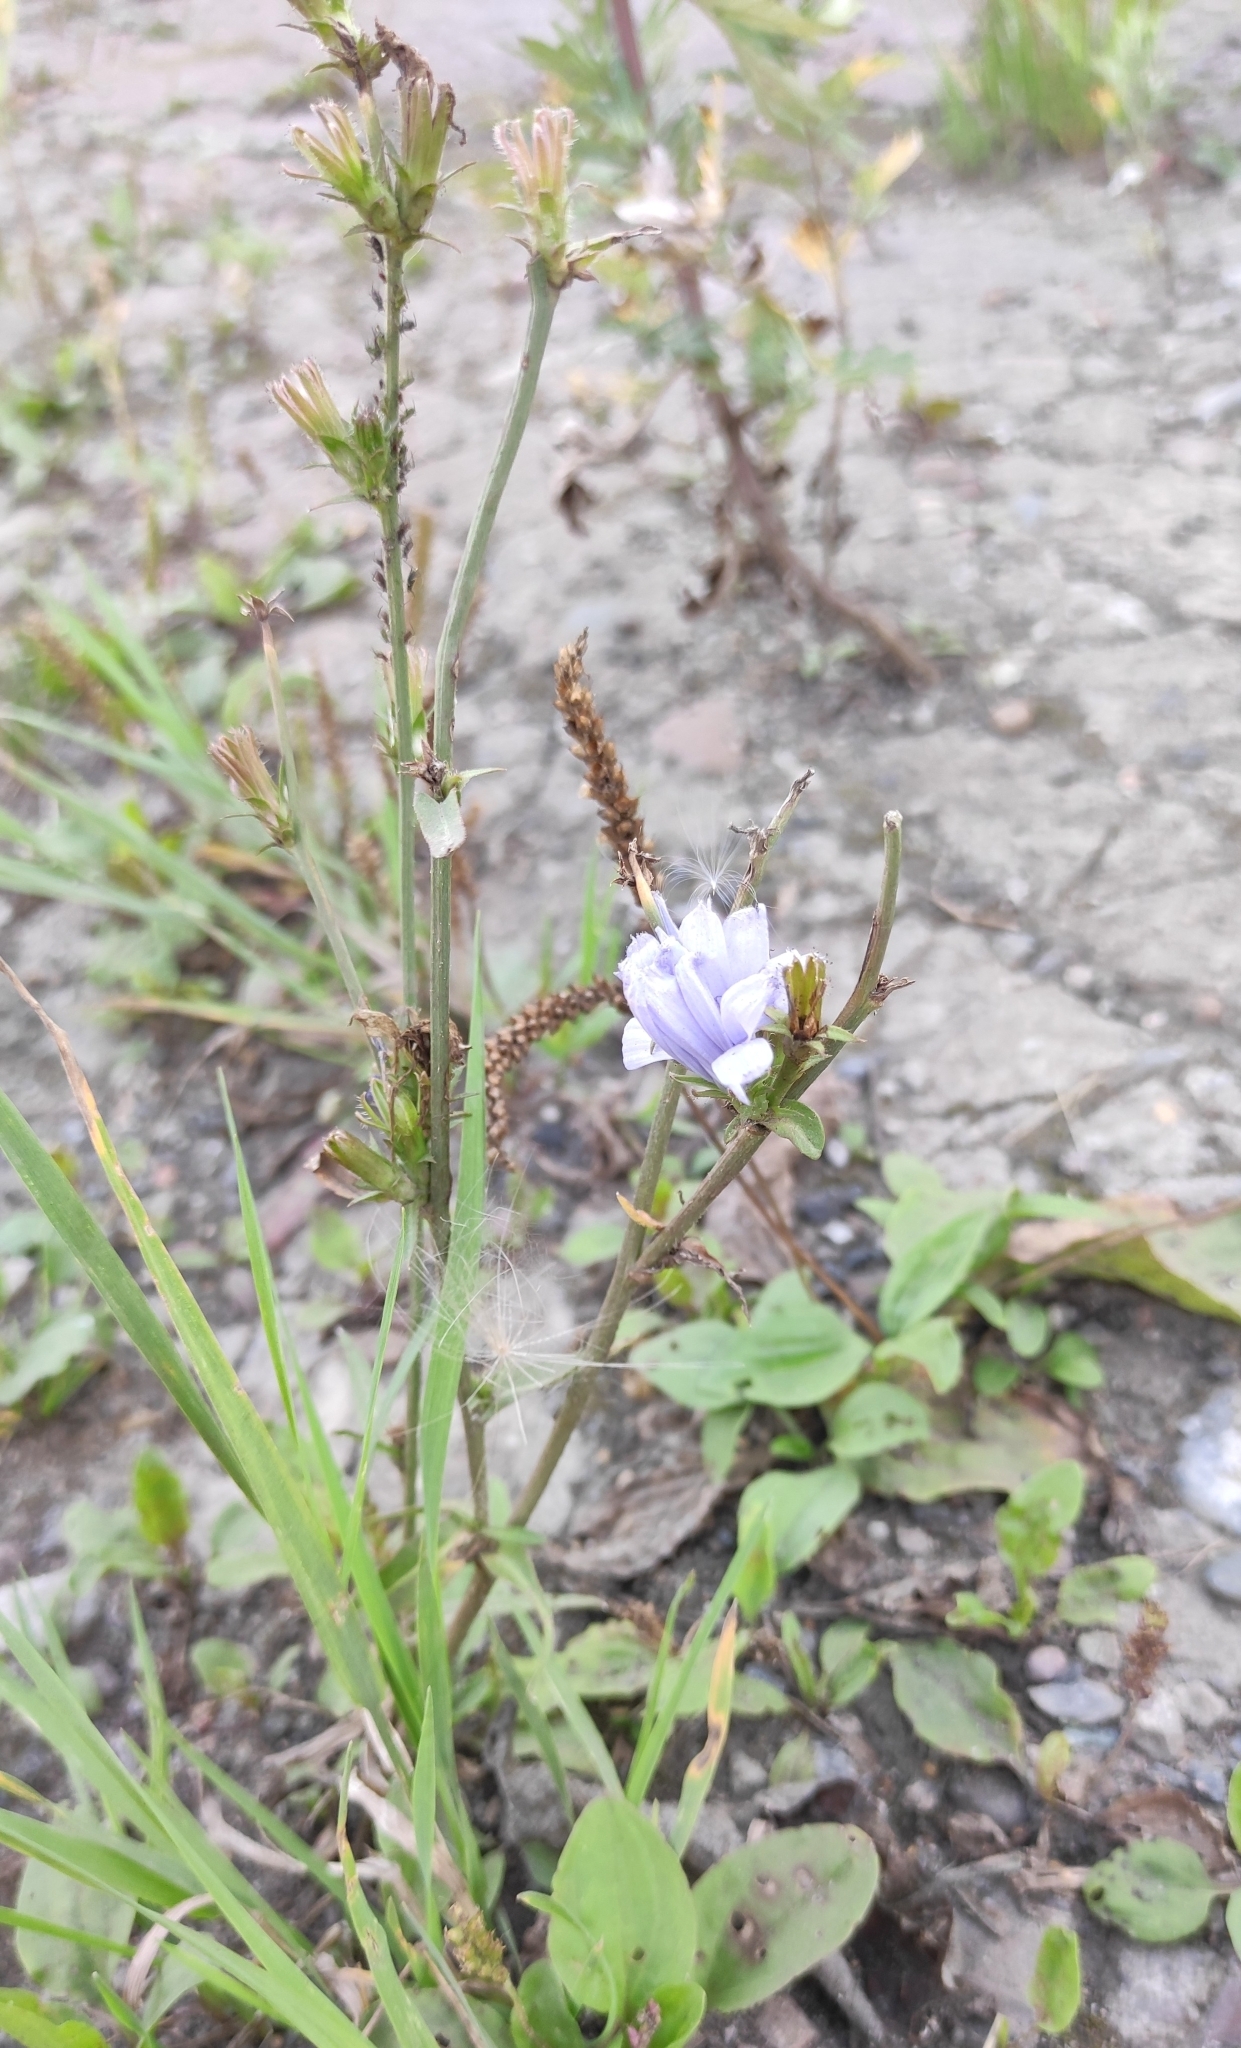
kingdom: Plantae
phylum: Tracheophyta
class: Magnoliopsida
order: Asterales
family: Asteraceae
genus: Cichorium
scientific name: Cichorium intybus
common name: Chicory
